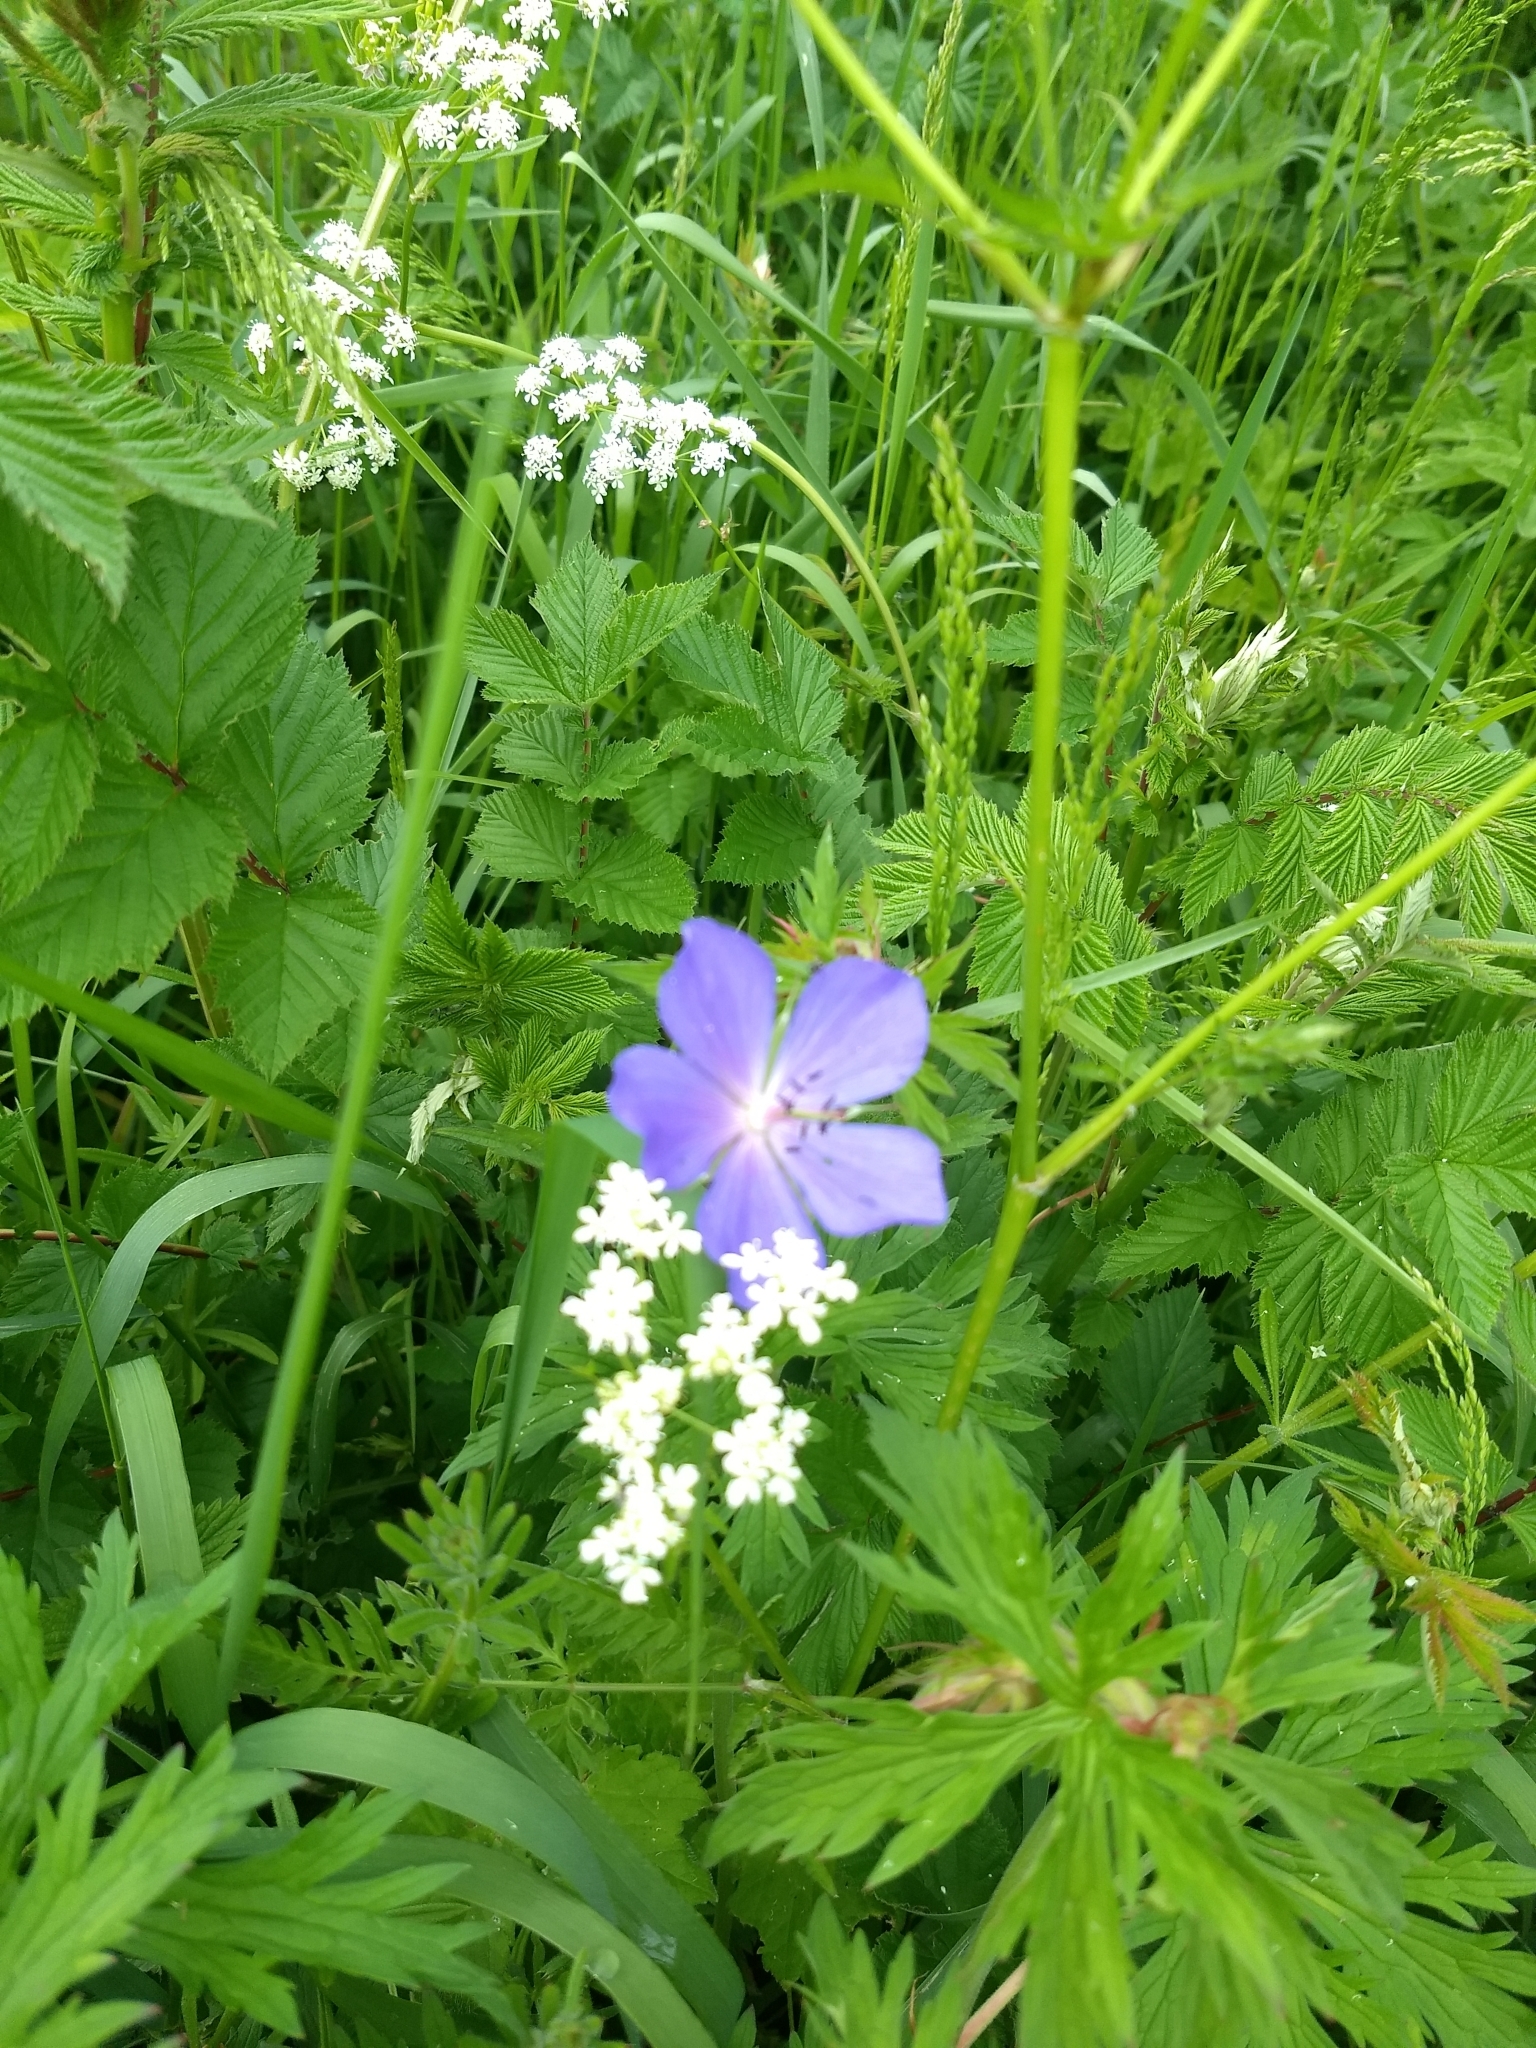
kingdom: Plantae
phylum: Tracheophyta
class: Magnoliopsida
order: Geraniales
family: Geraniaceae
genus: Geranium
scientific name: Geranium pratense
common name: Meadow crane's-bill
